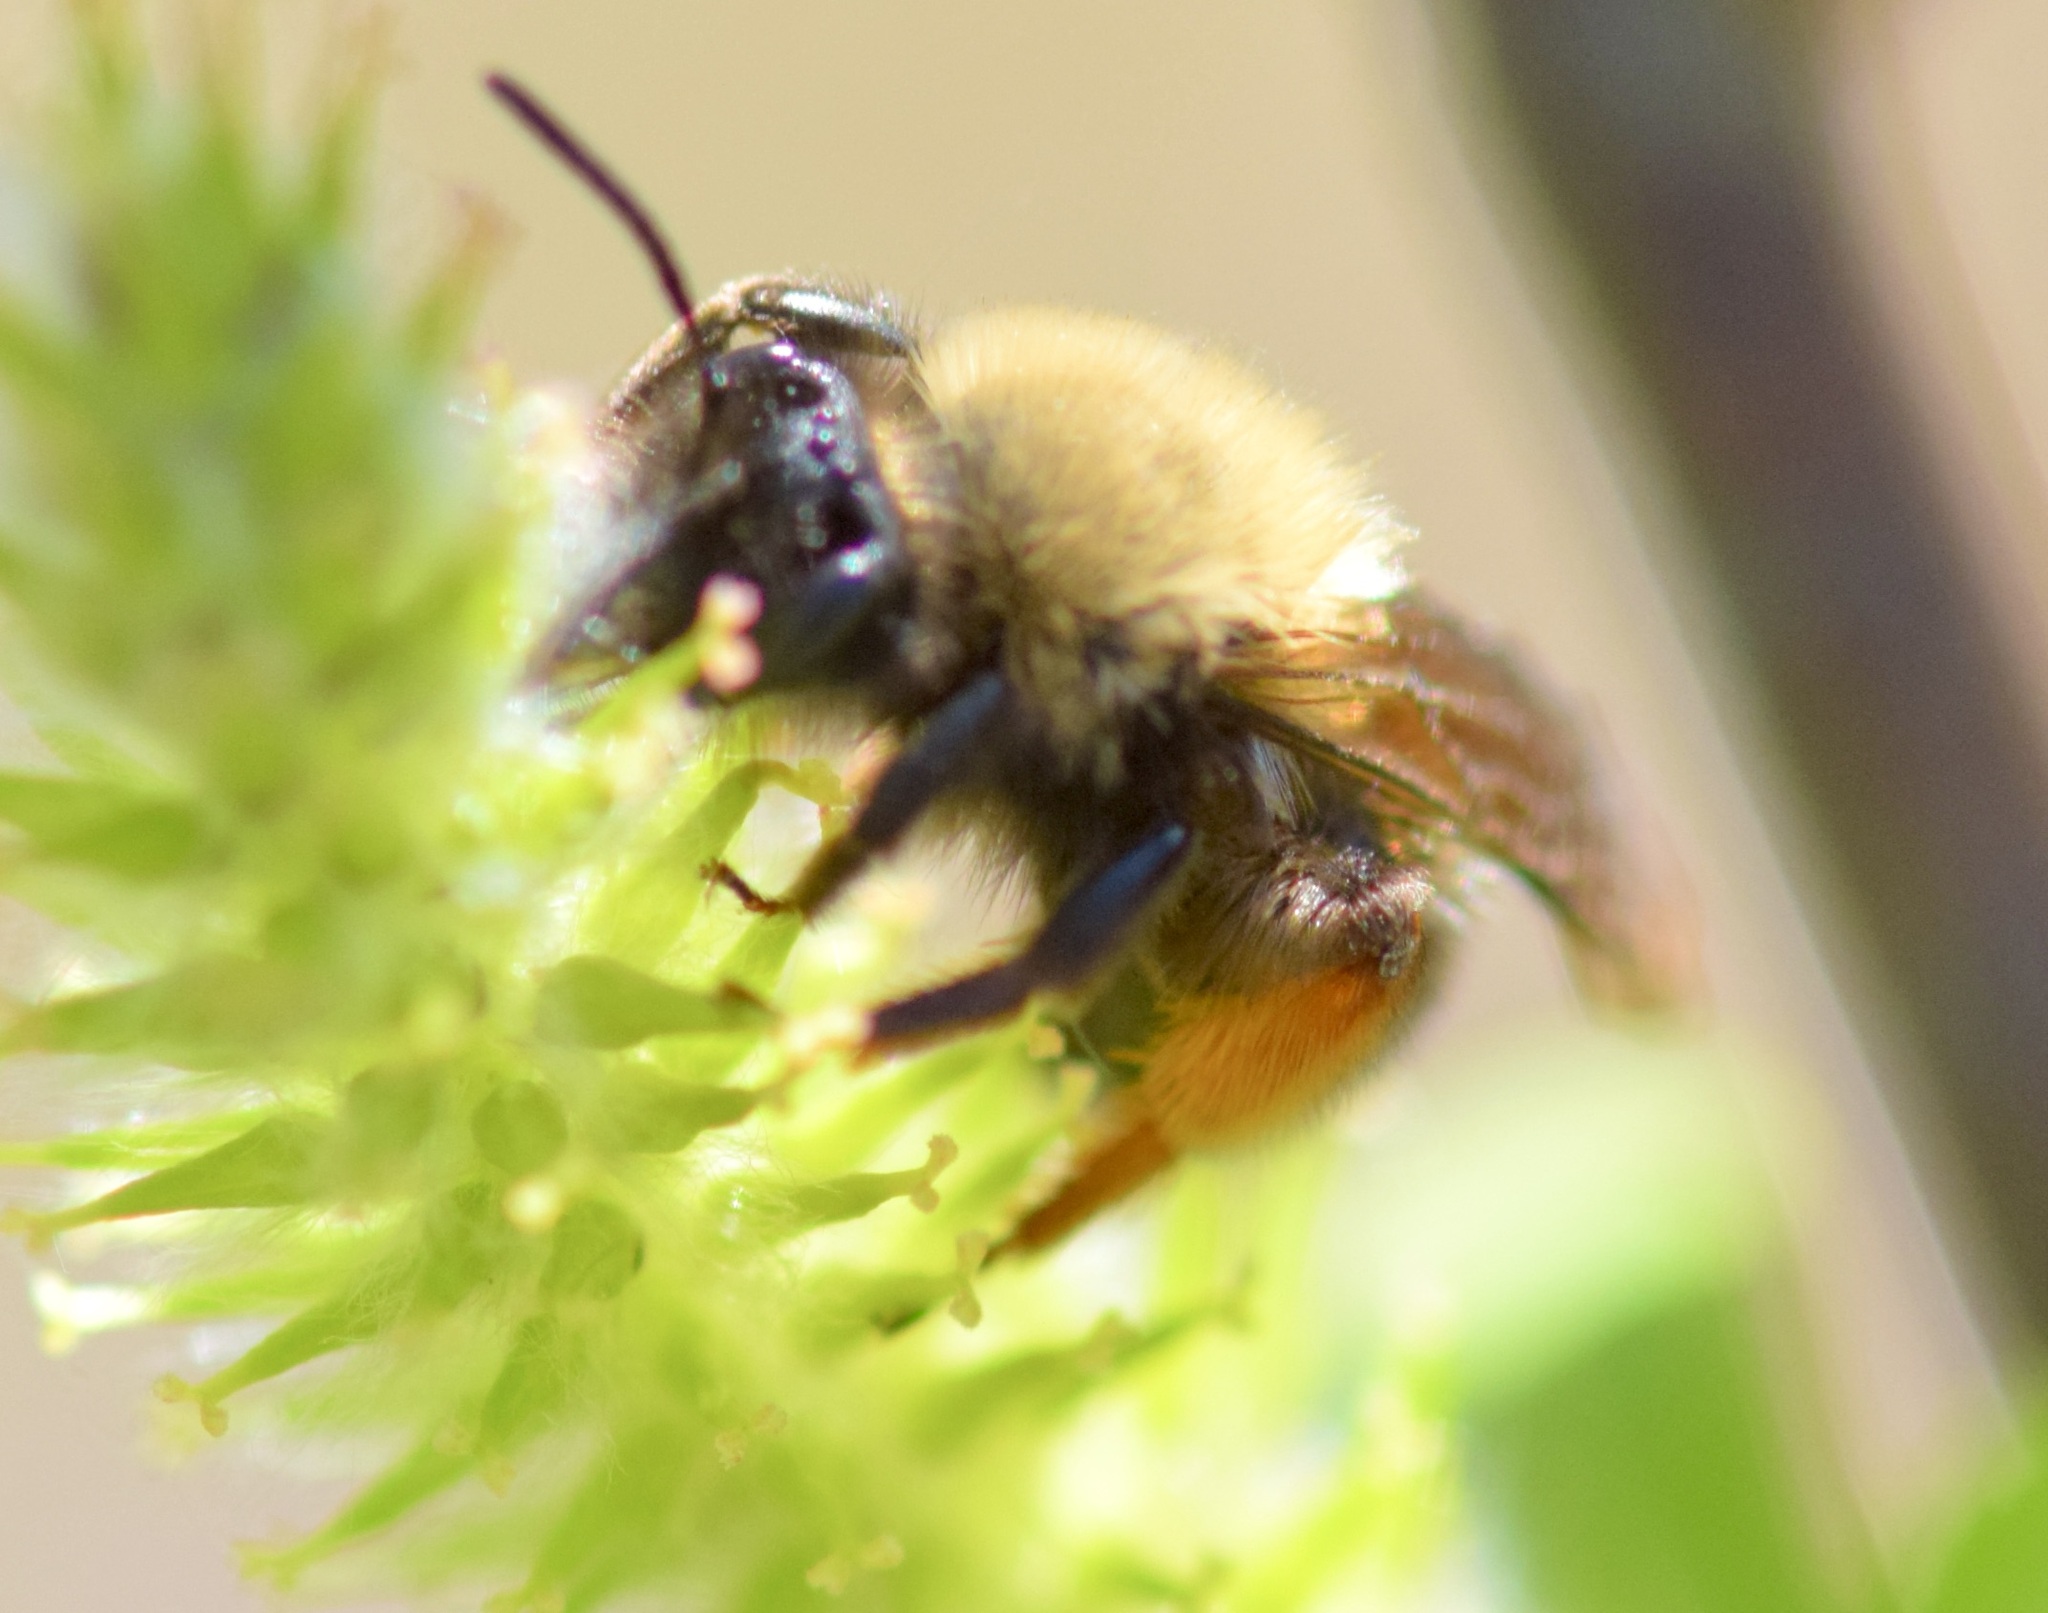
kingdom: Animalia
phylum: Arthropoda
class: Insecta
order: Hymenoptera
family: Andrenidae
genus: Andrena
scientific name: Andrena clarkella
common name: Clarke's mining bee
